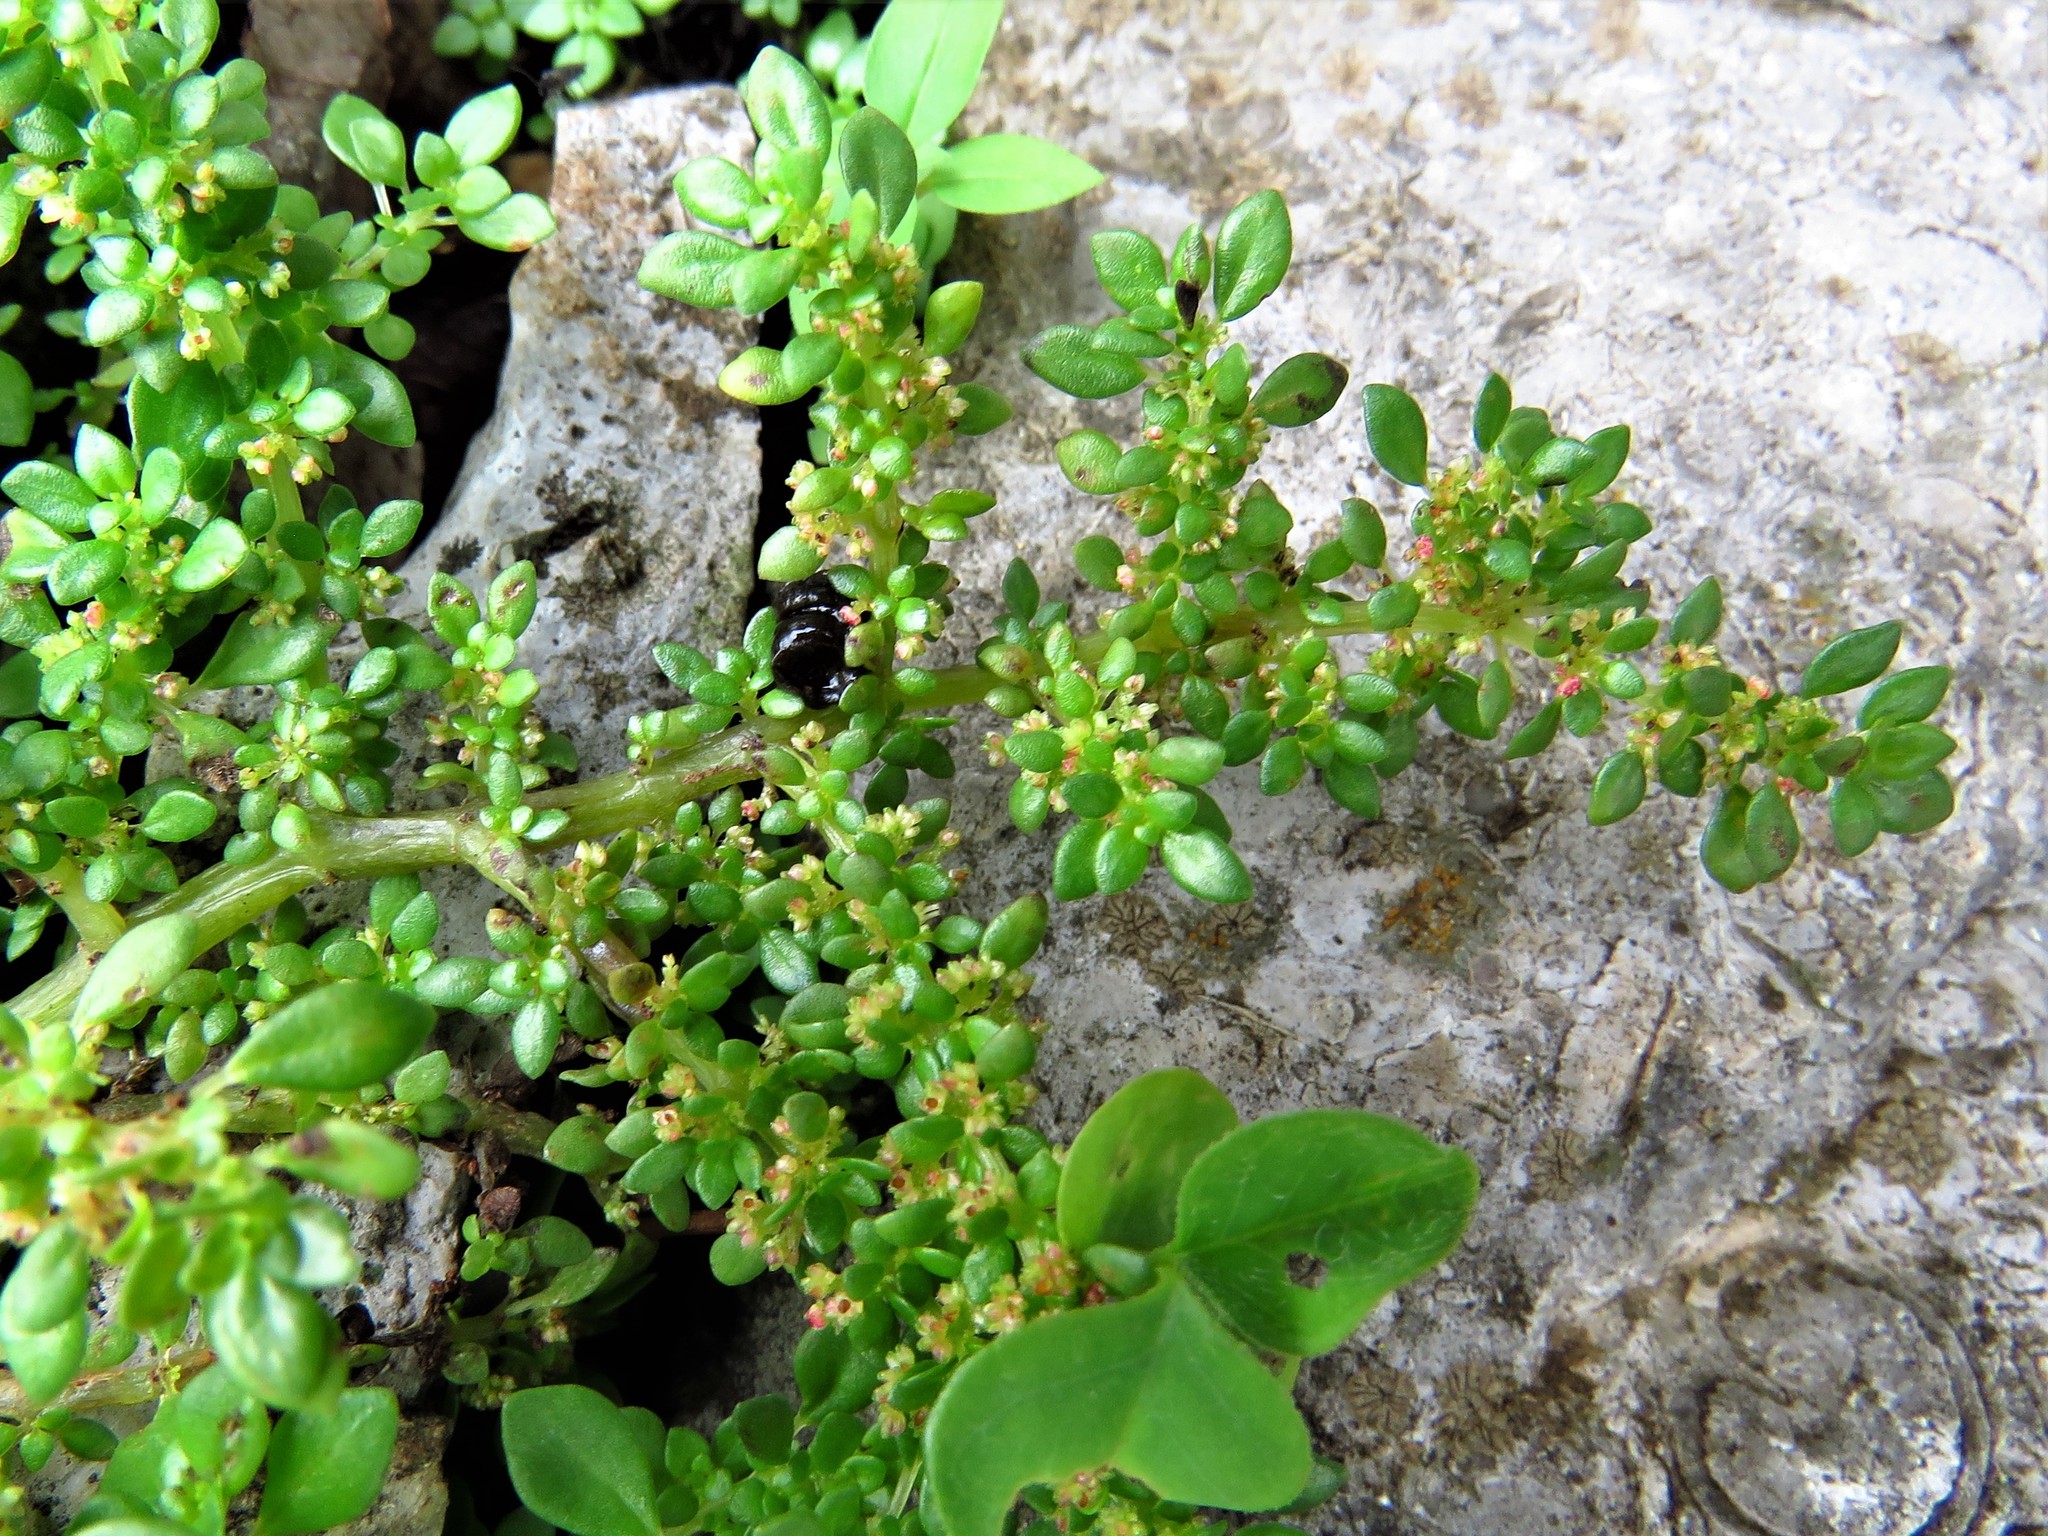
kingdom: Plantae
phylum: Tracheophyta
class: Magnoliopsida
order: Rosales
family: Urticaceae
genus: Pilea
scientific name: Pilea microphylla
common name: Artillery-plant
